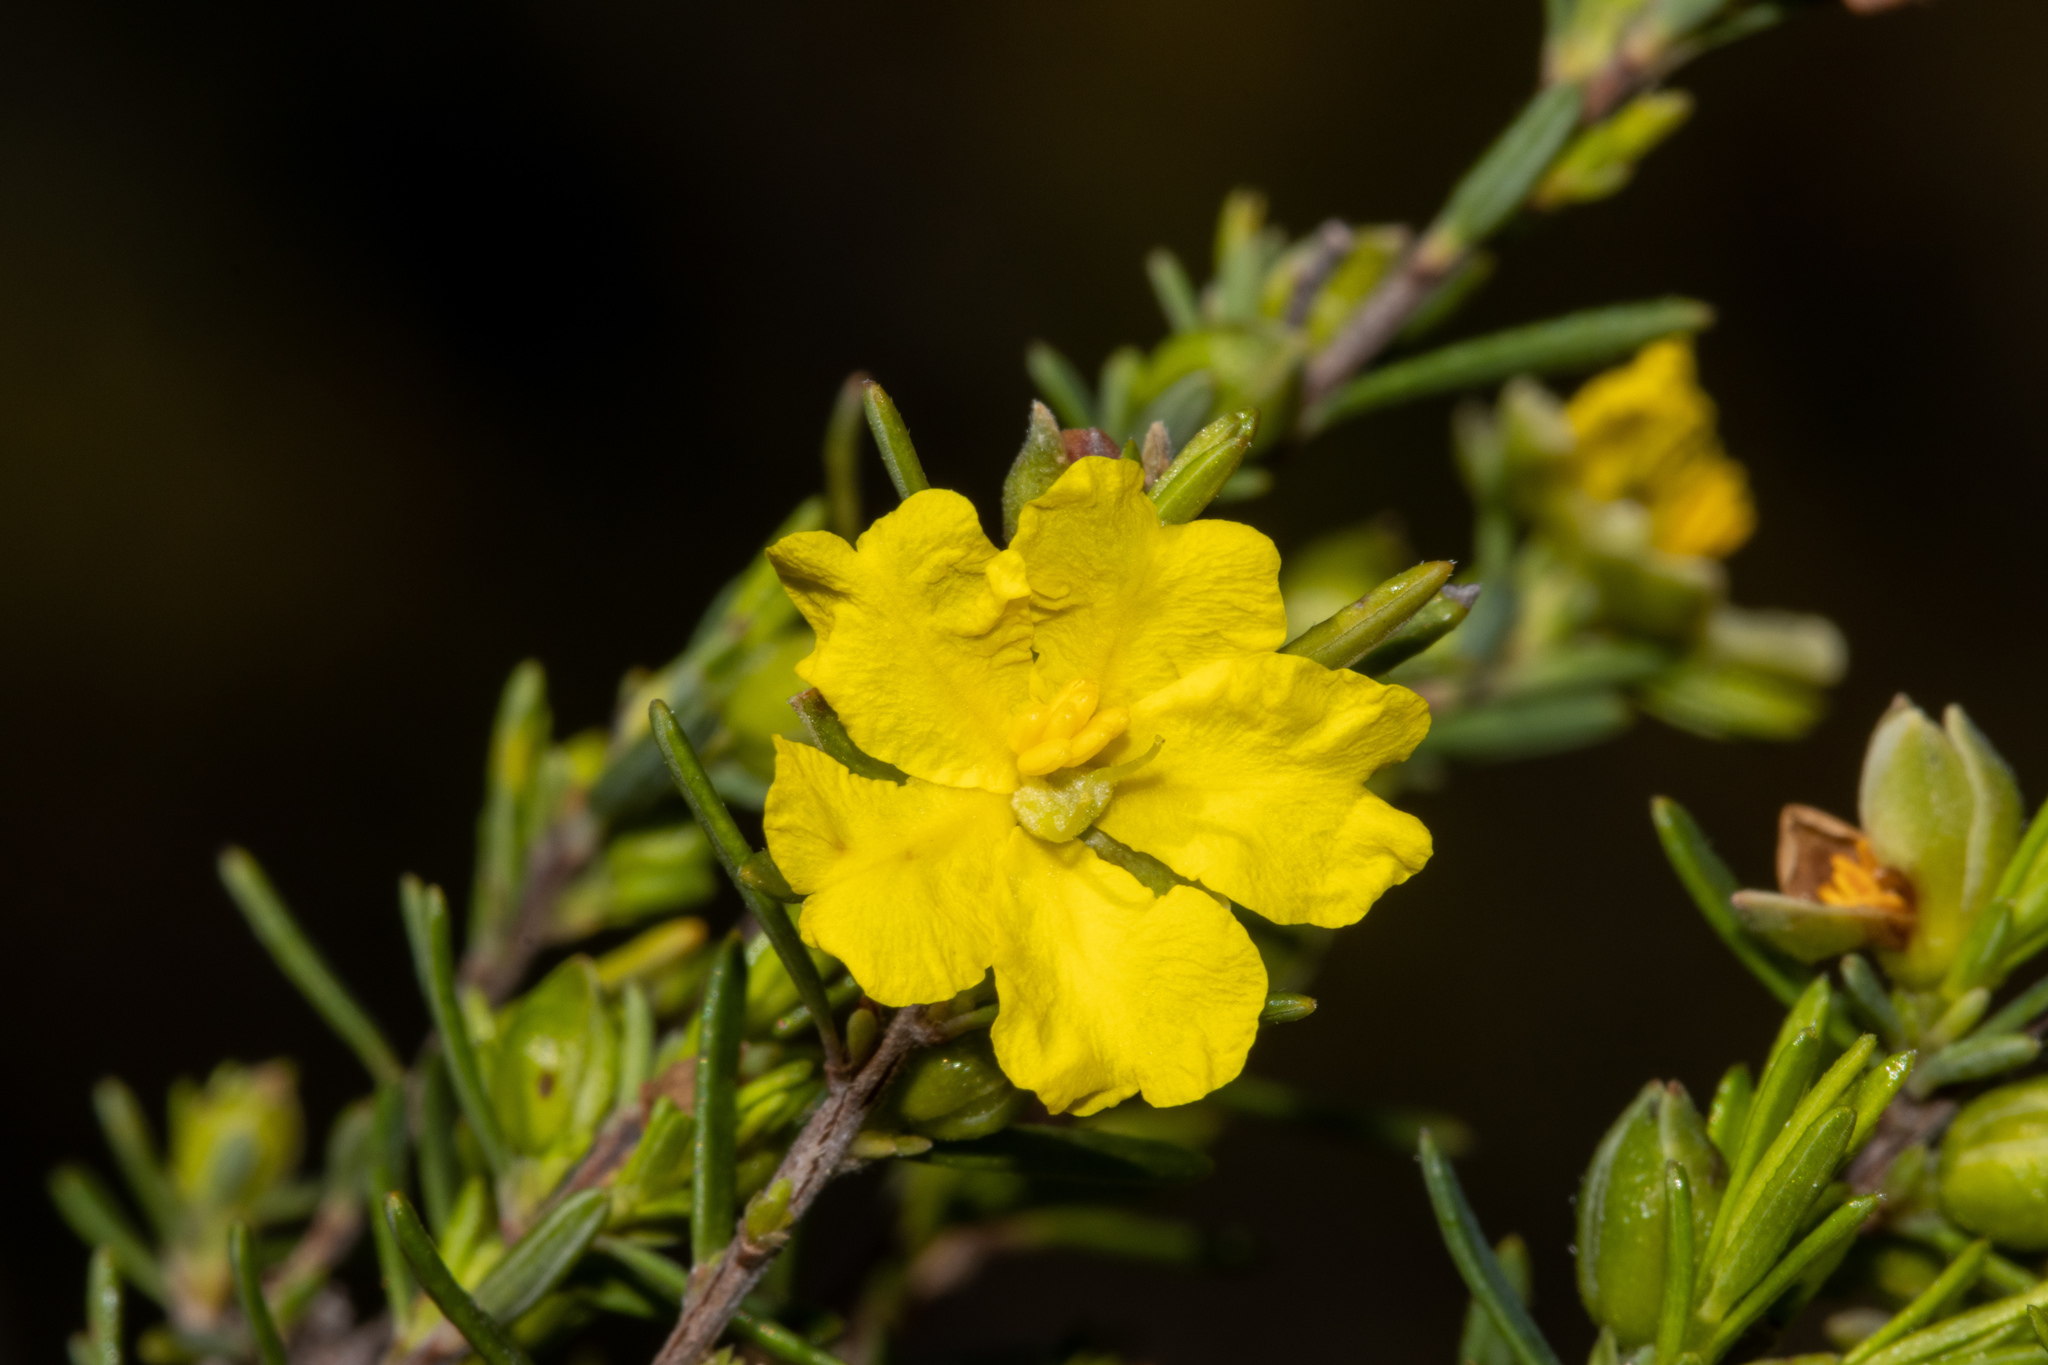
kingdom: Plantae
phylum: Tracheophyta
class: Magnoliopsida
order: Dilleniales
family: Dilleniaceae
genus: Hibbertia
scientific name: Hibbertia riparia
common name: Erect guinea-flower
